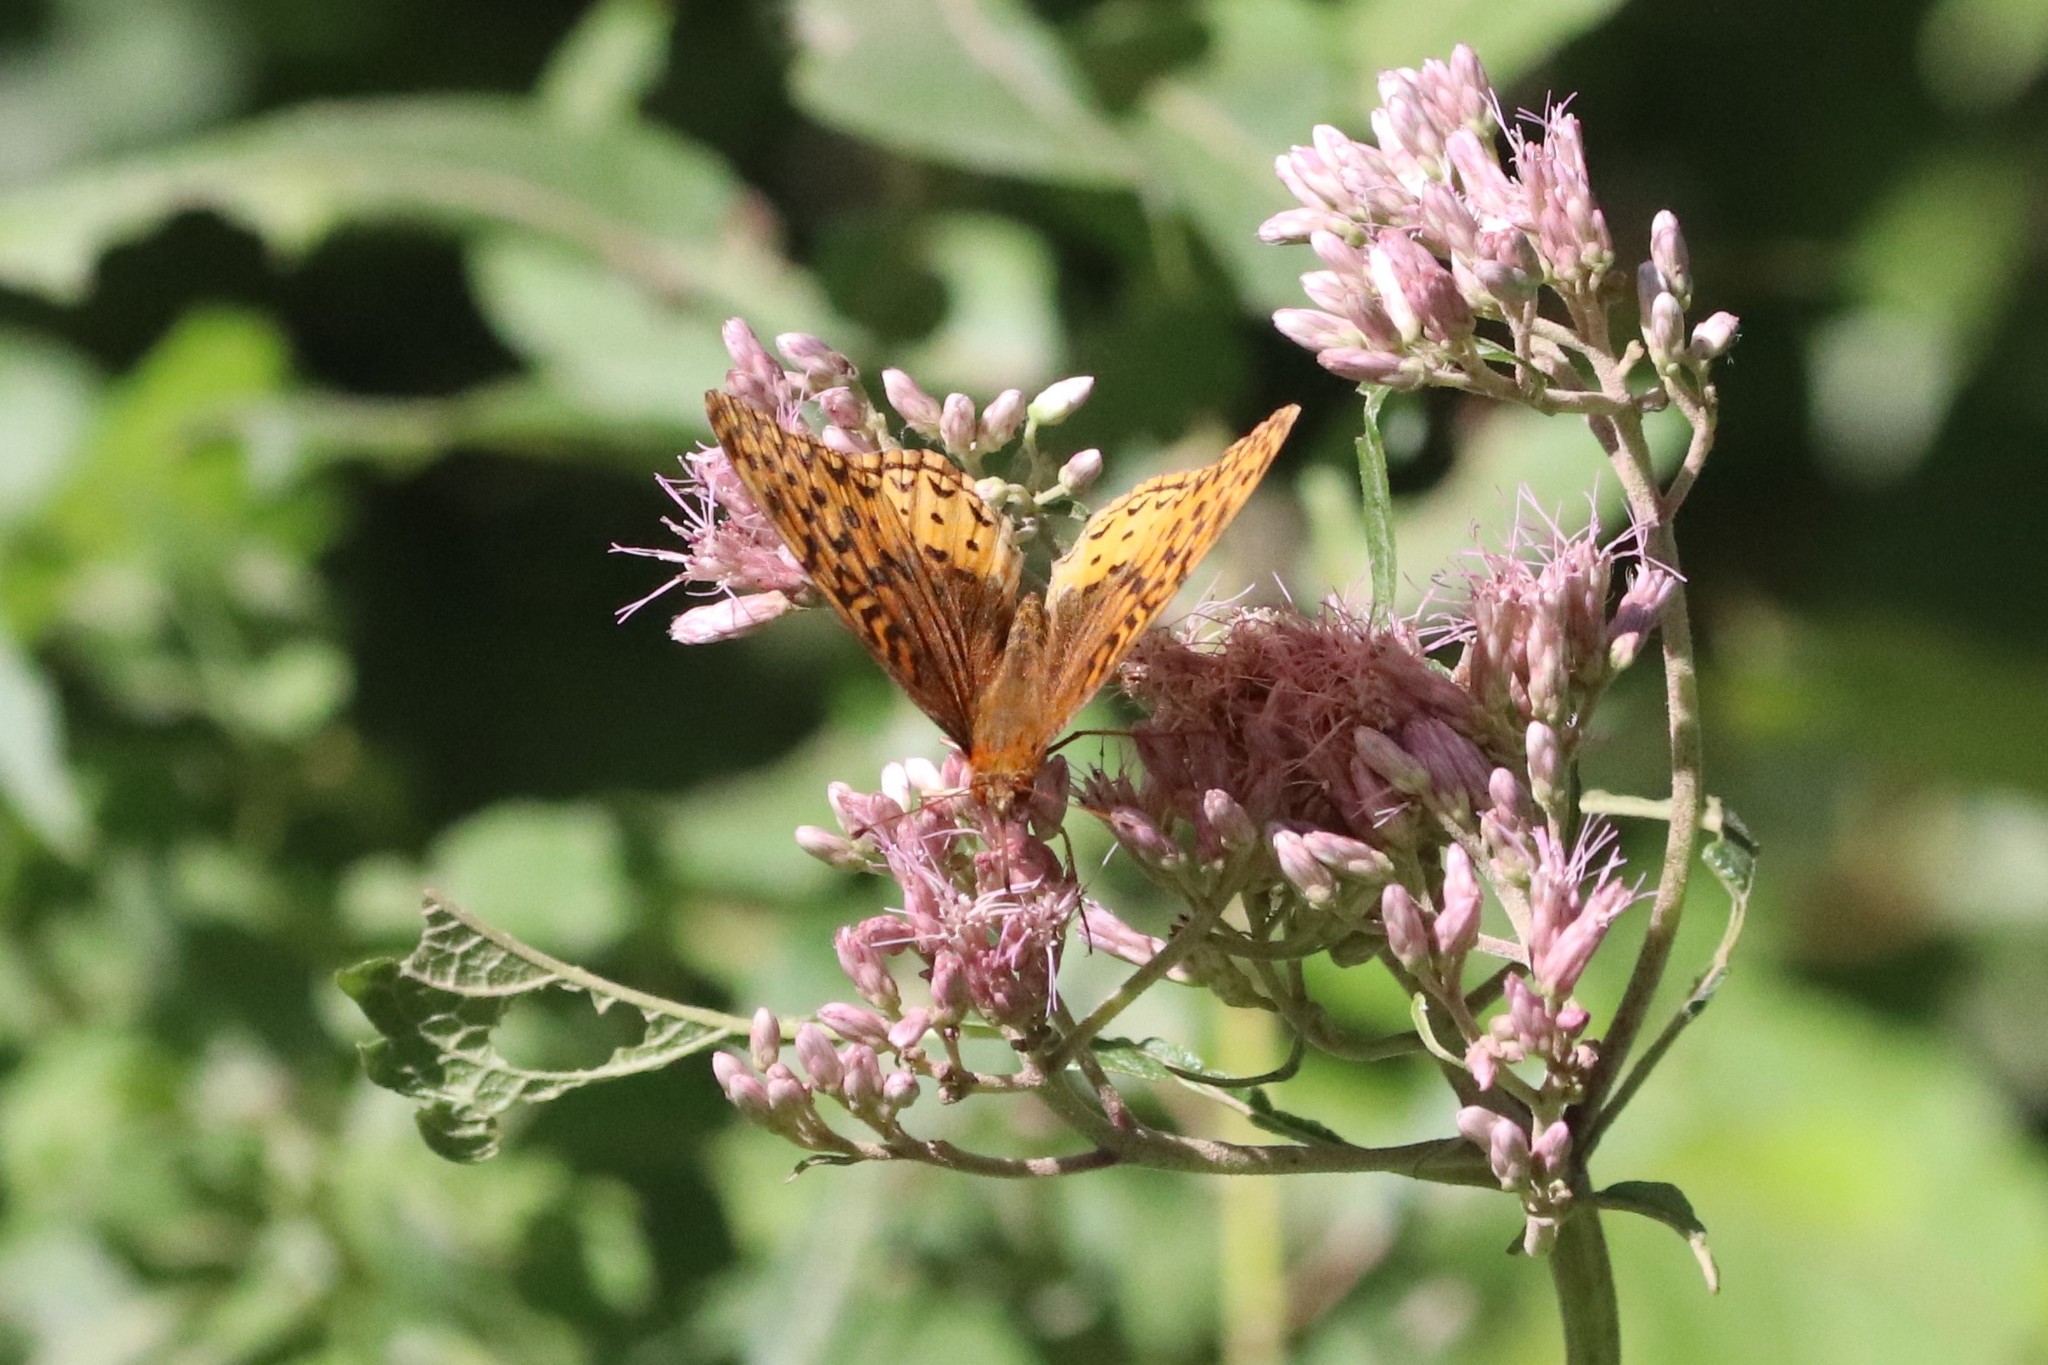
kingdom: Animalia
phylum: Arthropoda
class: Insecta
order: Lepidoptera
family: Nymphalidae
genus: Speyeria
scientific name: Speyeria cybele
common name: Great spangled fritillary
